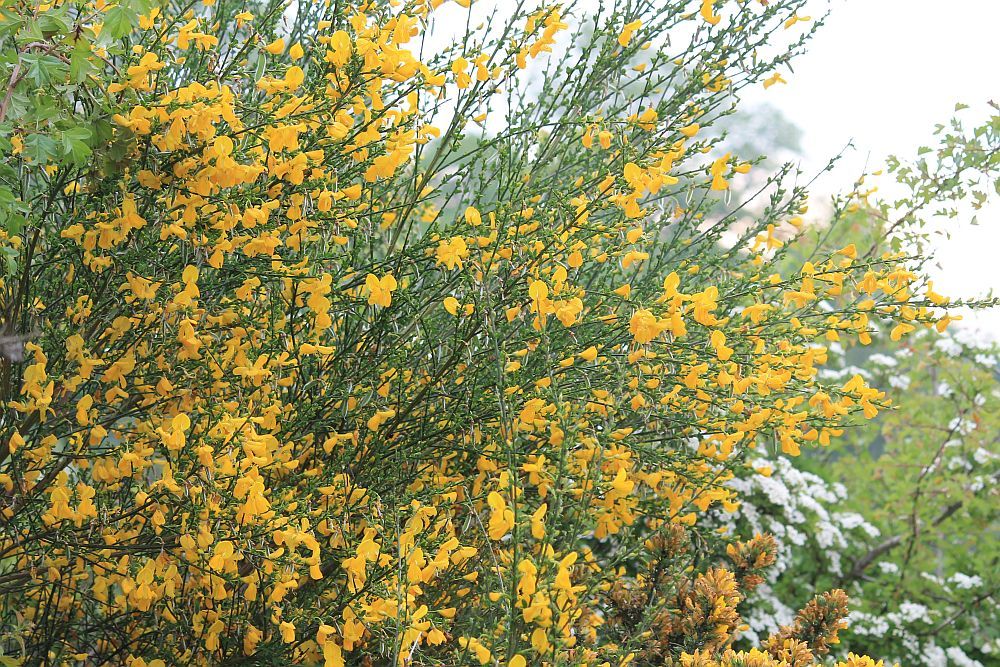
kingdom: Plantae
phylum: Tracheophyta
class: Magnoliopsida
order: Fabales
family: Fabaceae
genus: Cytisus
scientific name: Cytisus scoparius
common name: Scotch broom
